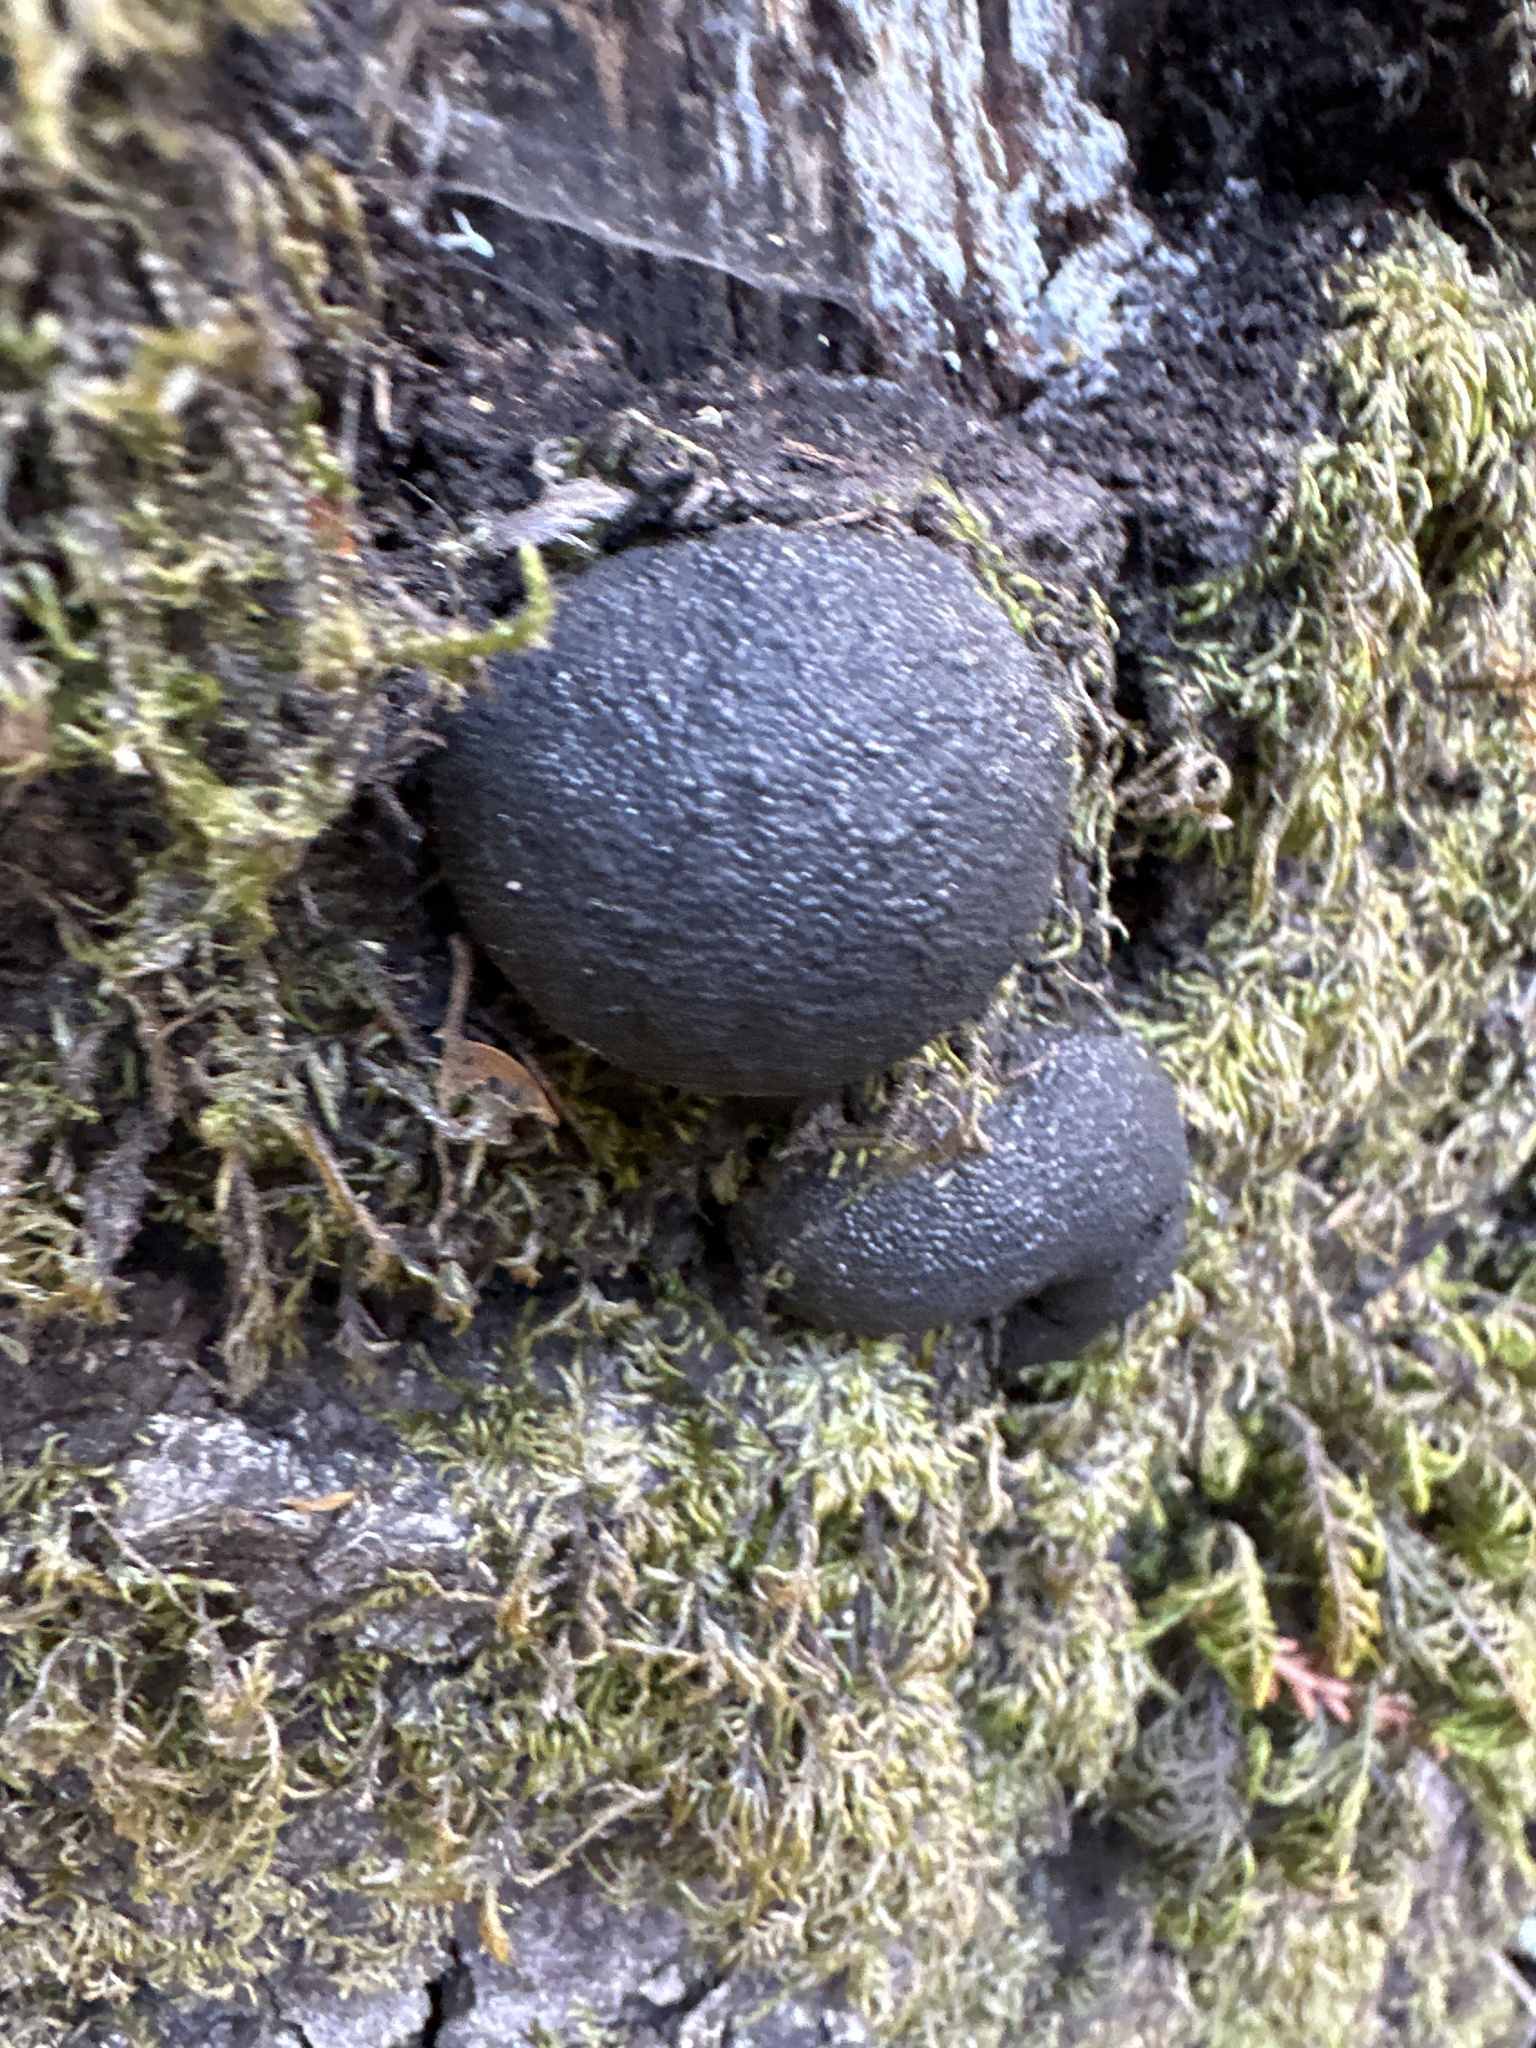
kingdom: Fungi
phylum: Ascomycota
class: Sordariomycetes
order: Xylariales
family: Hypoxylaceae
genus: Annulohypoxylon
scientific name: Annulohypoxylon thouarsianum
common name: Cramp balls
